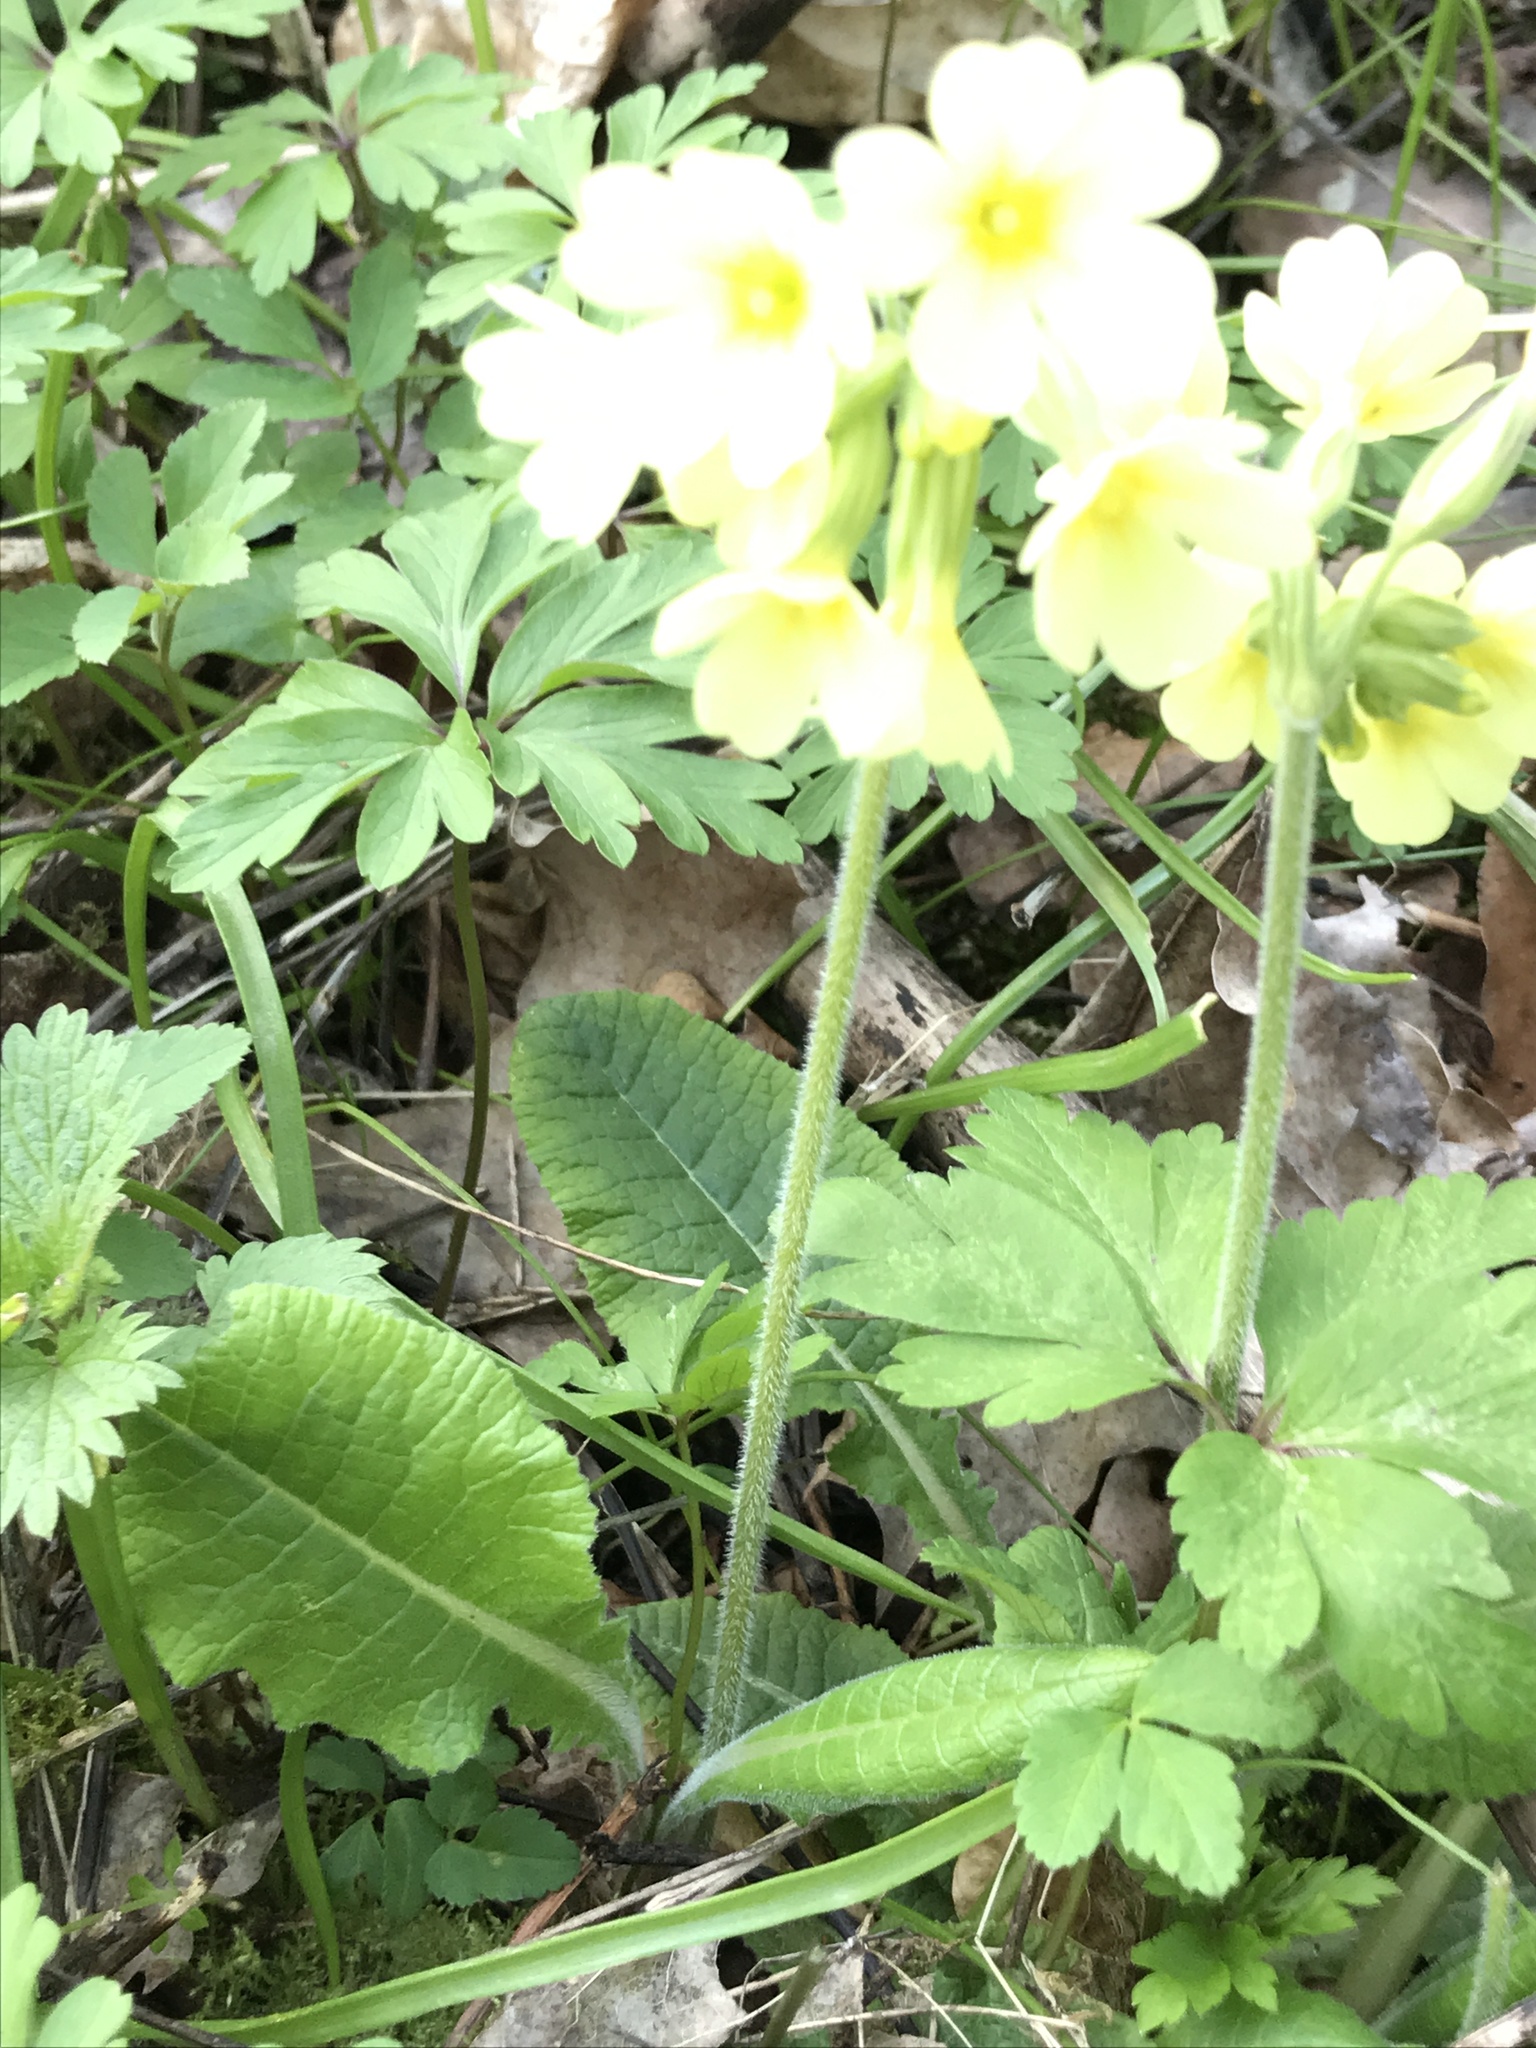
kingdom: Plantae
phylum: Tracheophyta
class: Magnoliopsida
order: Ericales
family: Primulaceae
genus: Primula
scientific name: Primula elatior
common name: Oxlip
